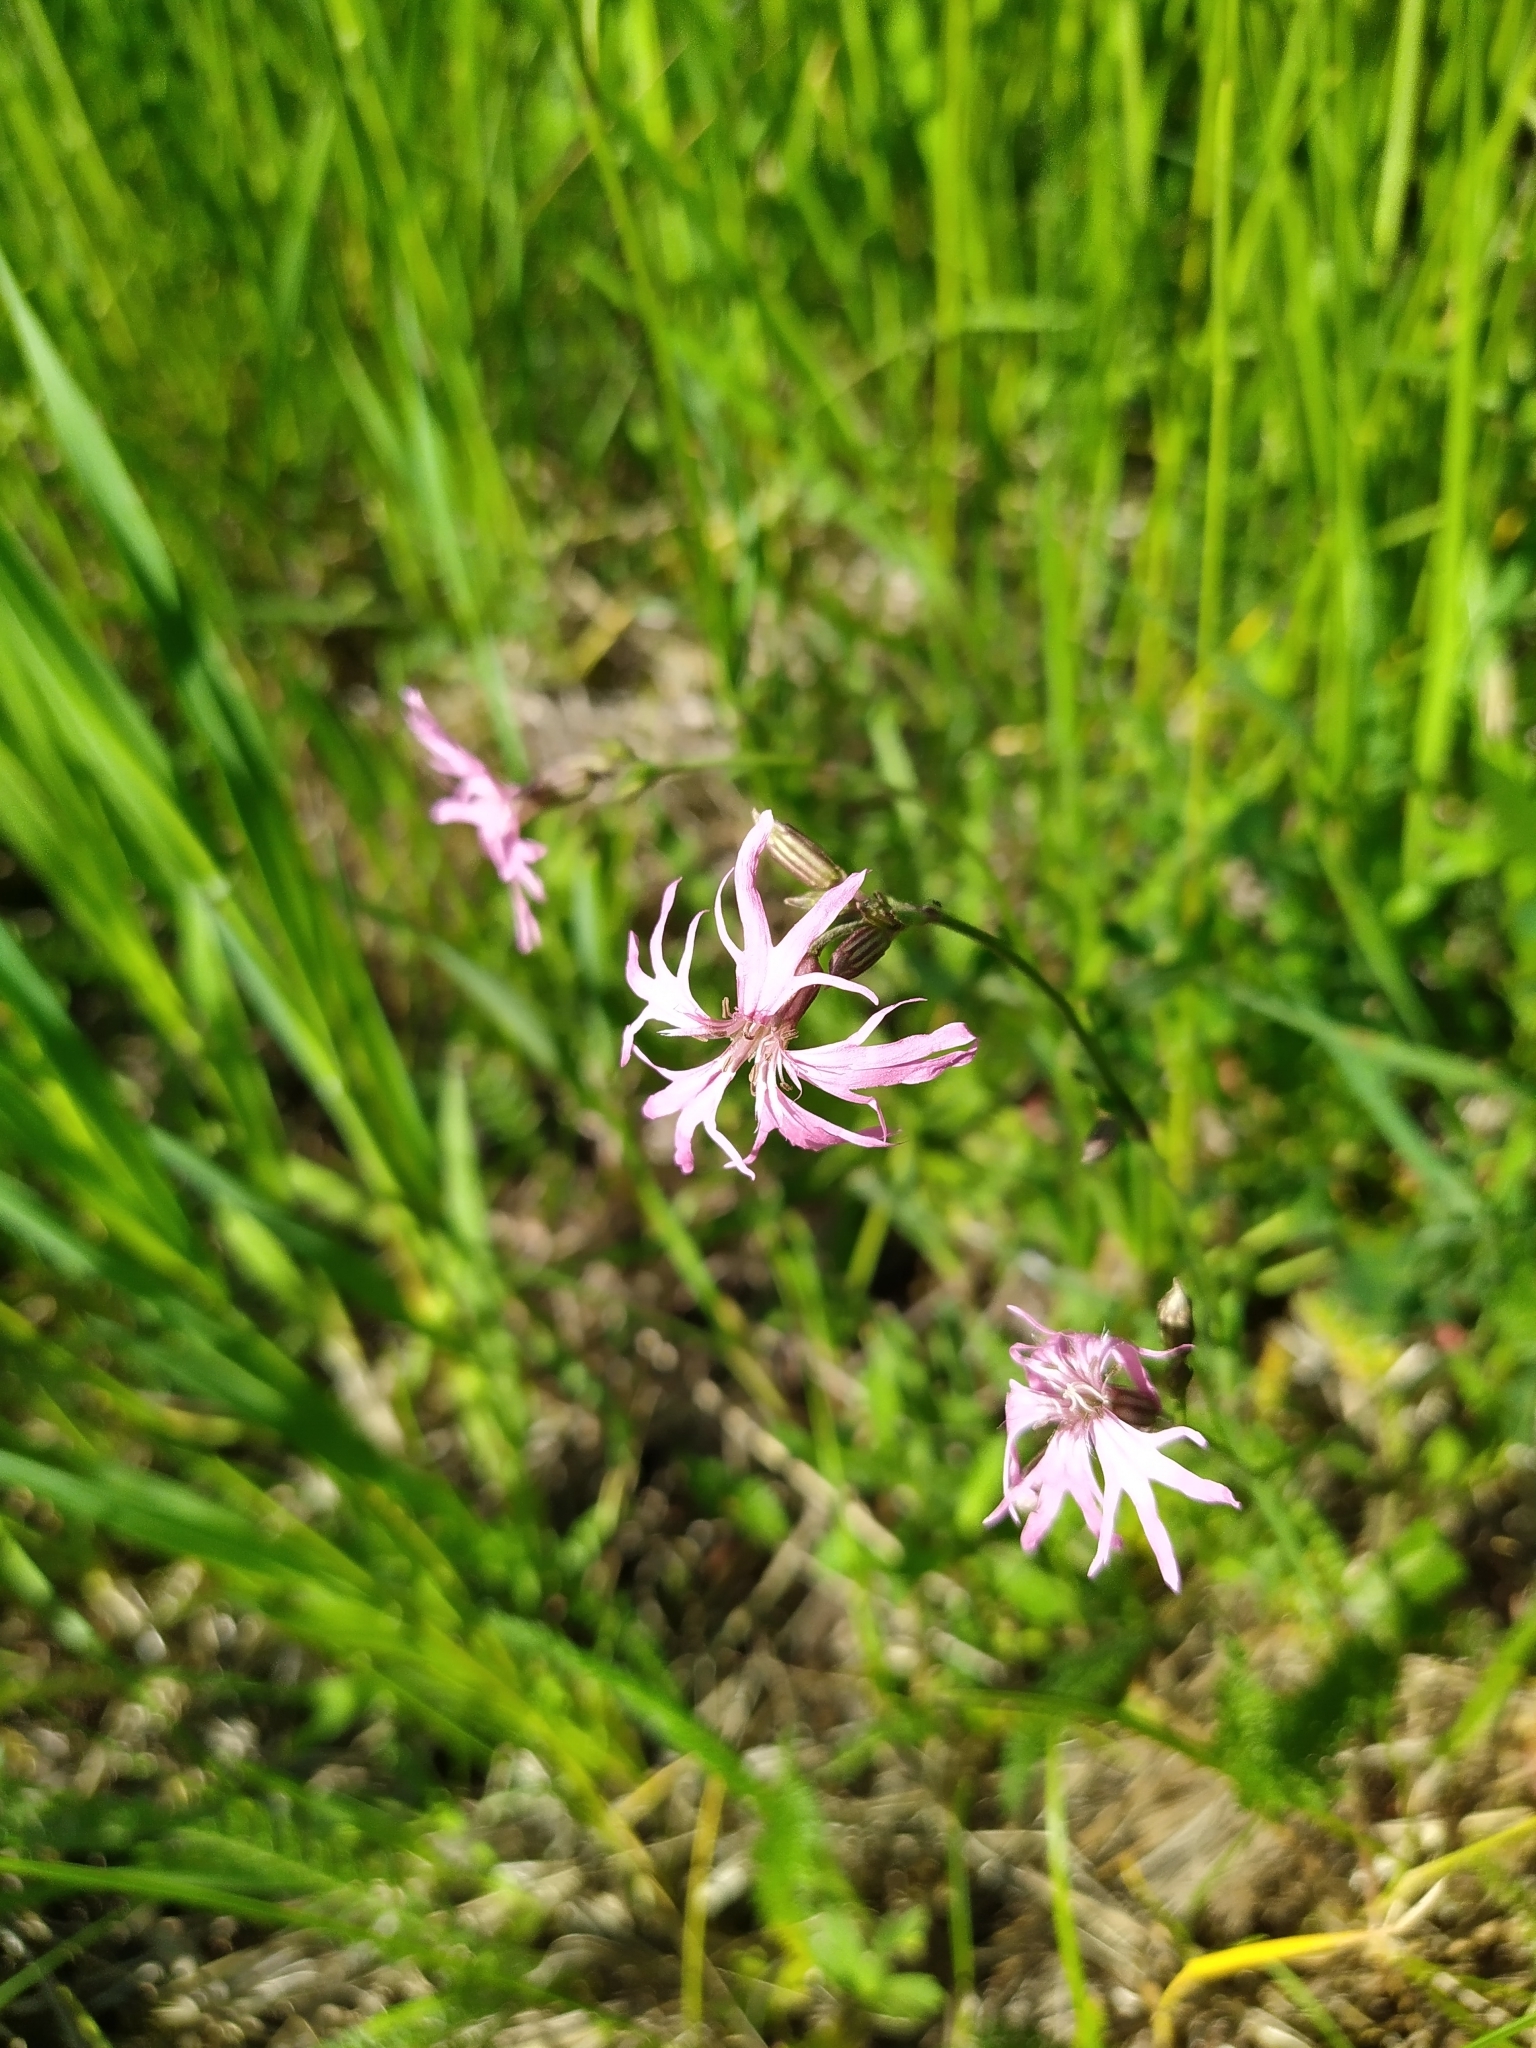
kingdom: Plantae
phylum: Tracheophyta
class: Magnoliopsida
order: Caryophyllales
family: Caryophyllaceae
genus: Silene
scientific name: Silene flos-cuculi
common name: Ragged-robin
